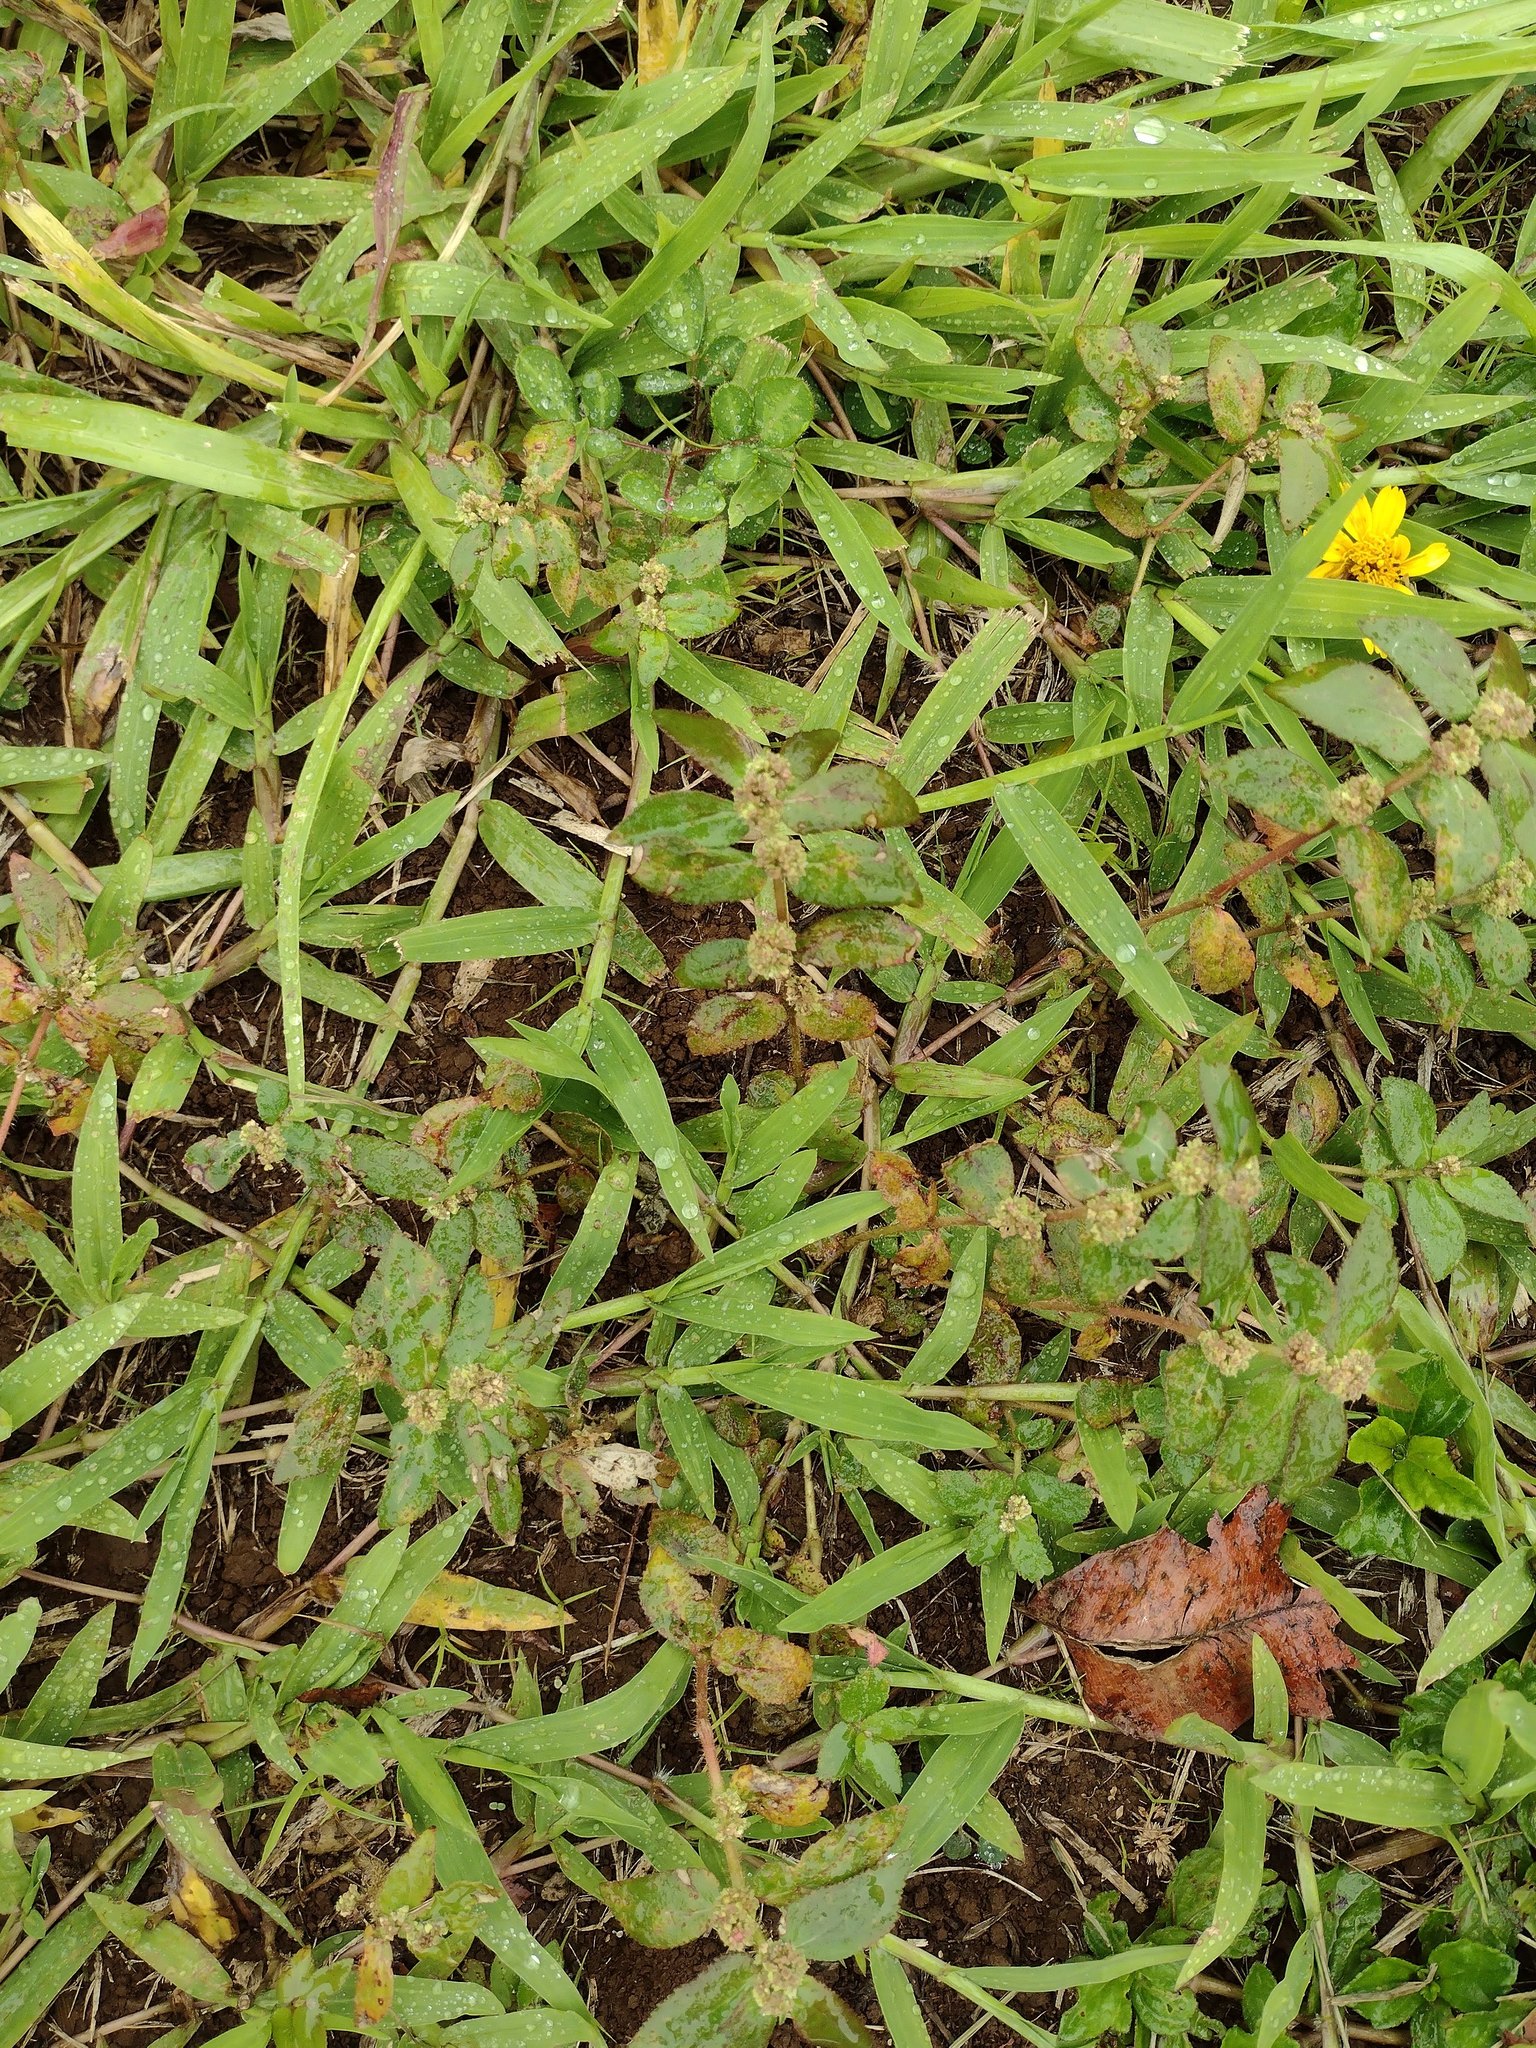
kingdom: Plantae
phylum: Tracheophyta
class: Magnoliopsida
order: Malpighiales
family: Euphorbiaceae
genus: Euphorbia
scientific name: Euphorbia hirta
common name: Pillpod sandmat
